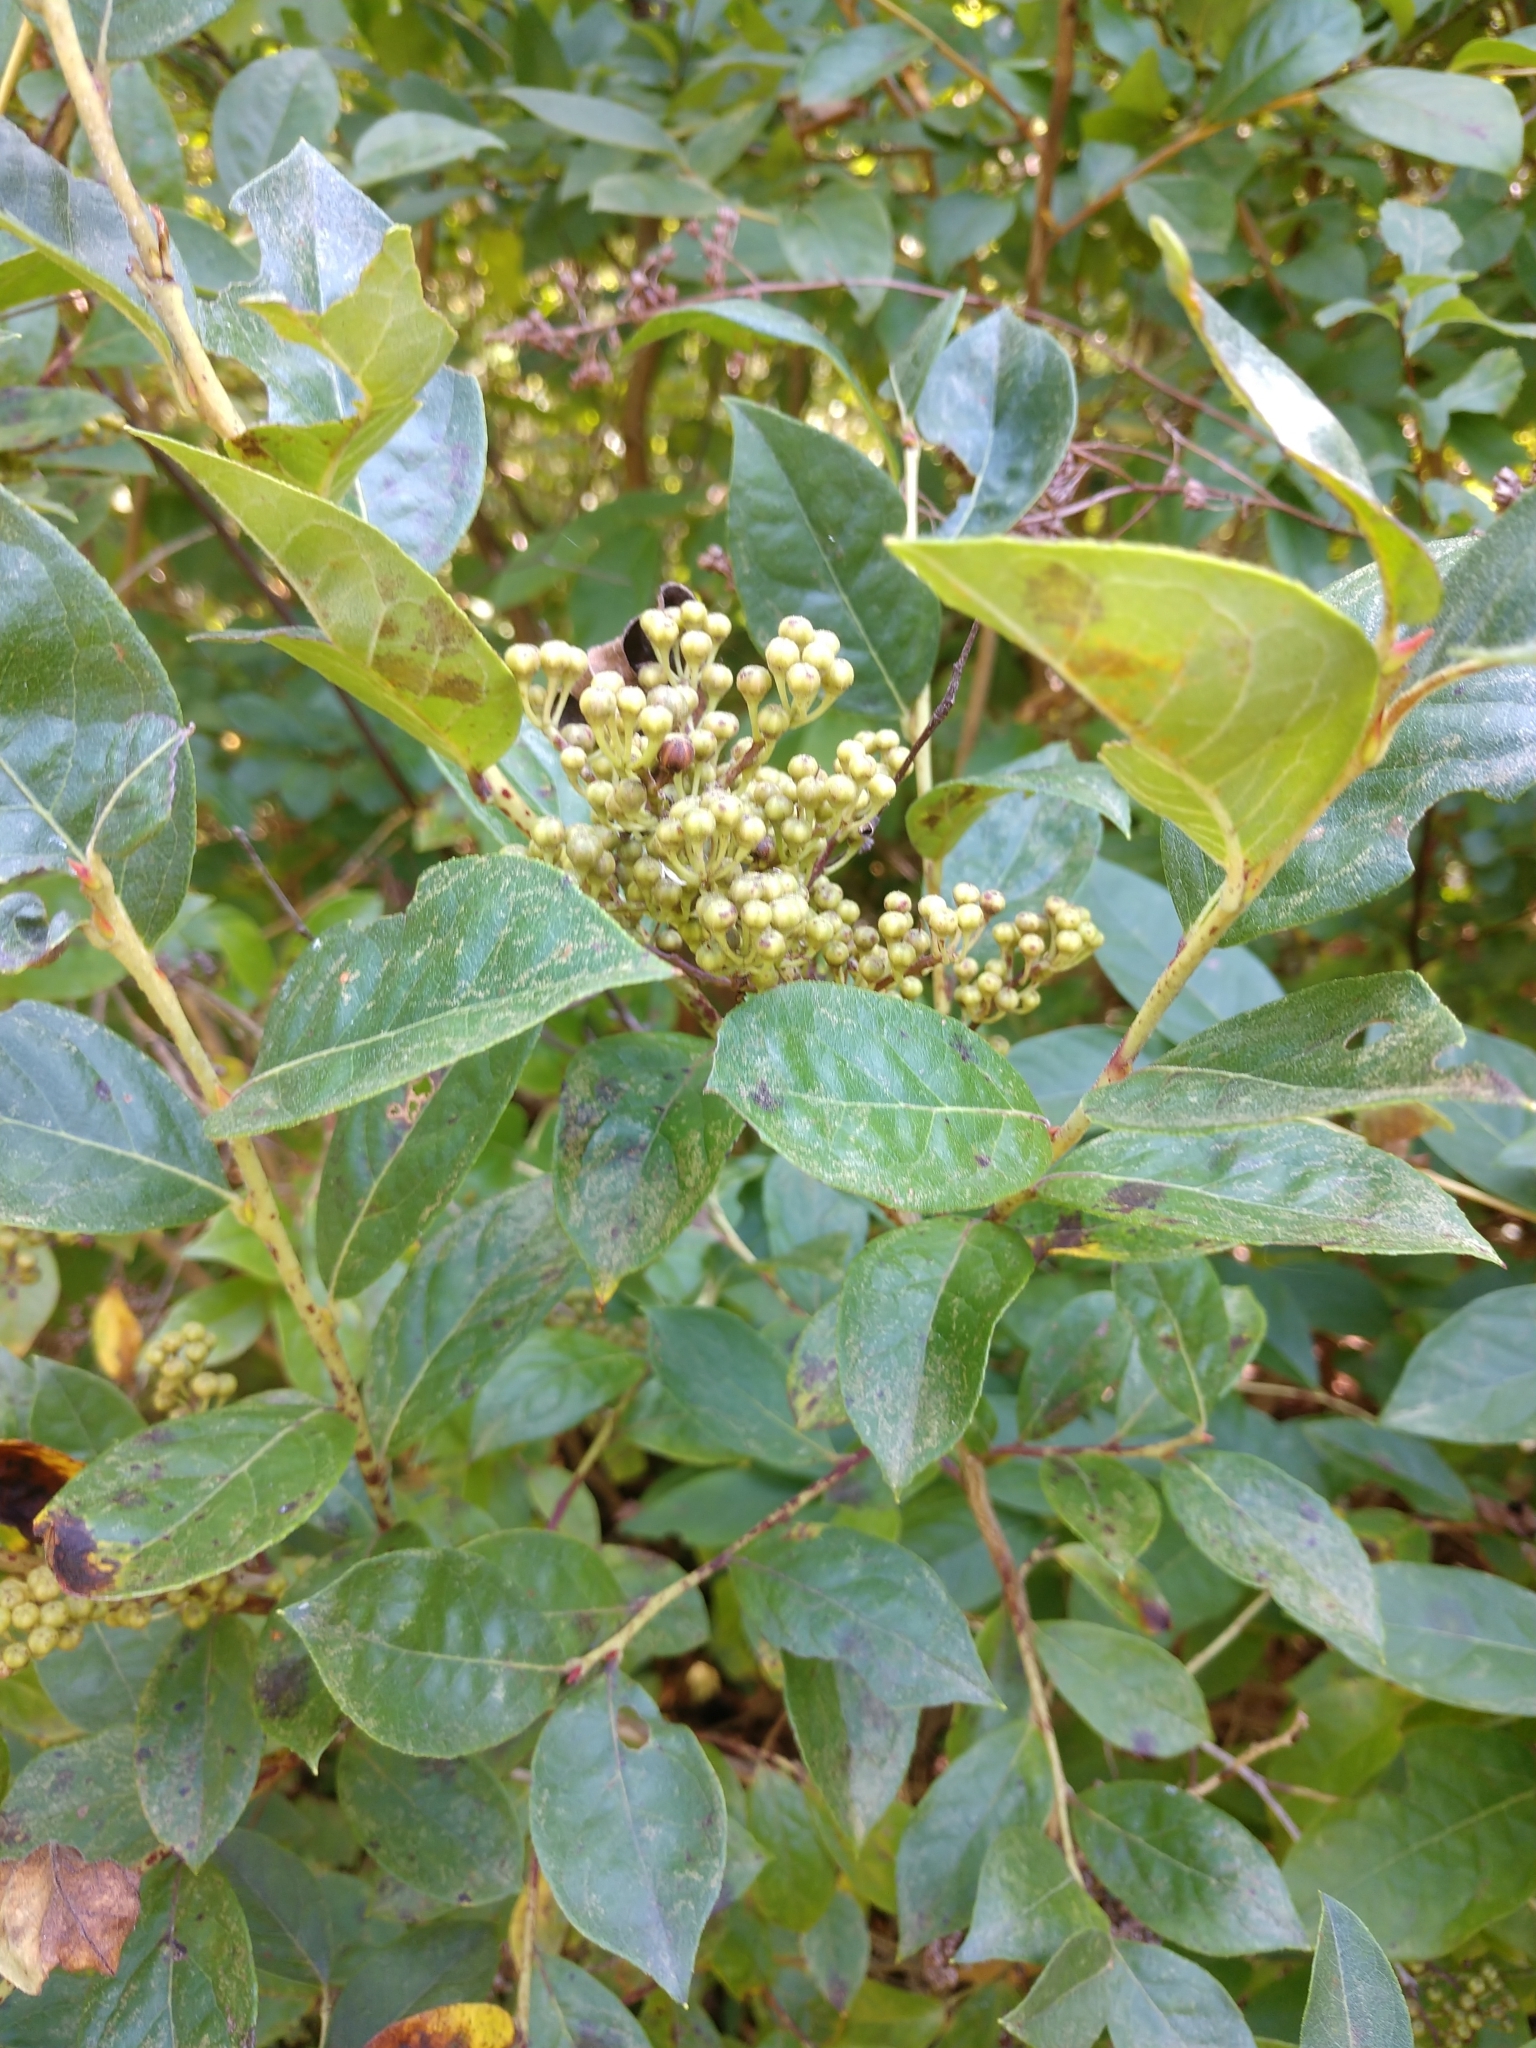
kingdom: Plantae
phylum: Tracheophyta
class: Magnoliopsida
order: Ericales
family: Ericaceae
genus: Lyonia
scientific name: Lyonia ligustrina
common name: Maleberry
